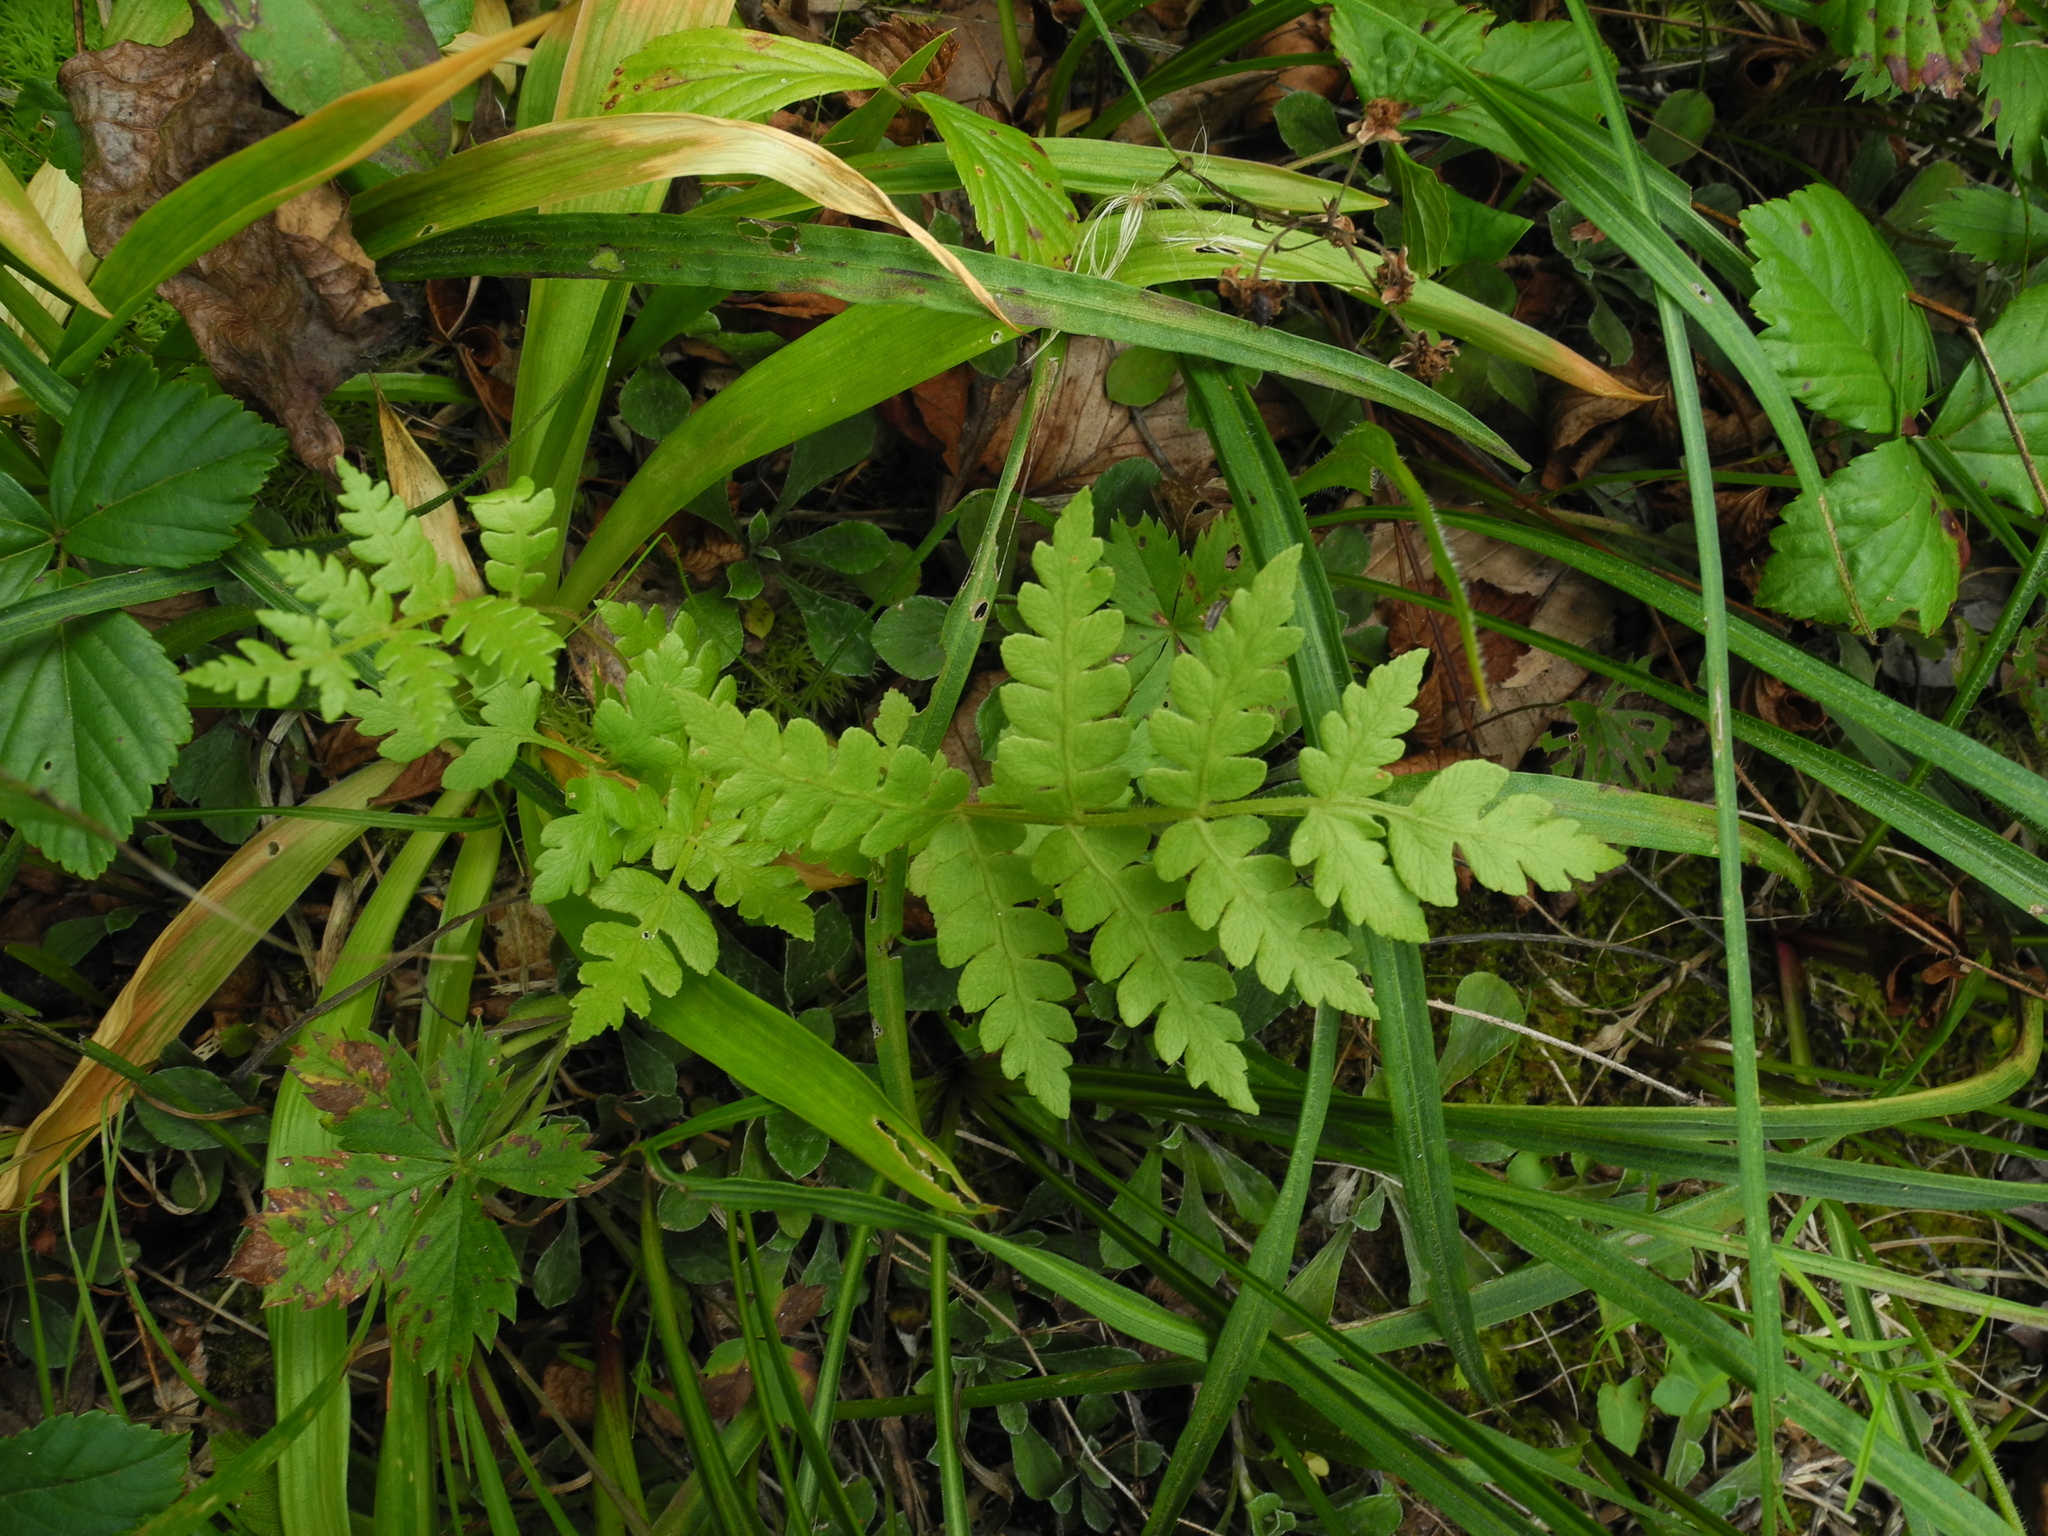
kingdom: Plantae
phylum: Tracheophyta
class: Polypodiopsida
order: Osmundales
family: Osmundaceae
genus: Osmundastrum
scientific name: Osmundastrum cinnamomeum
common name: Cinnamon fern
